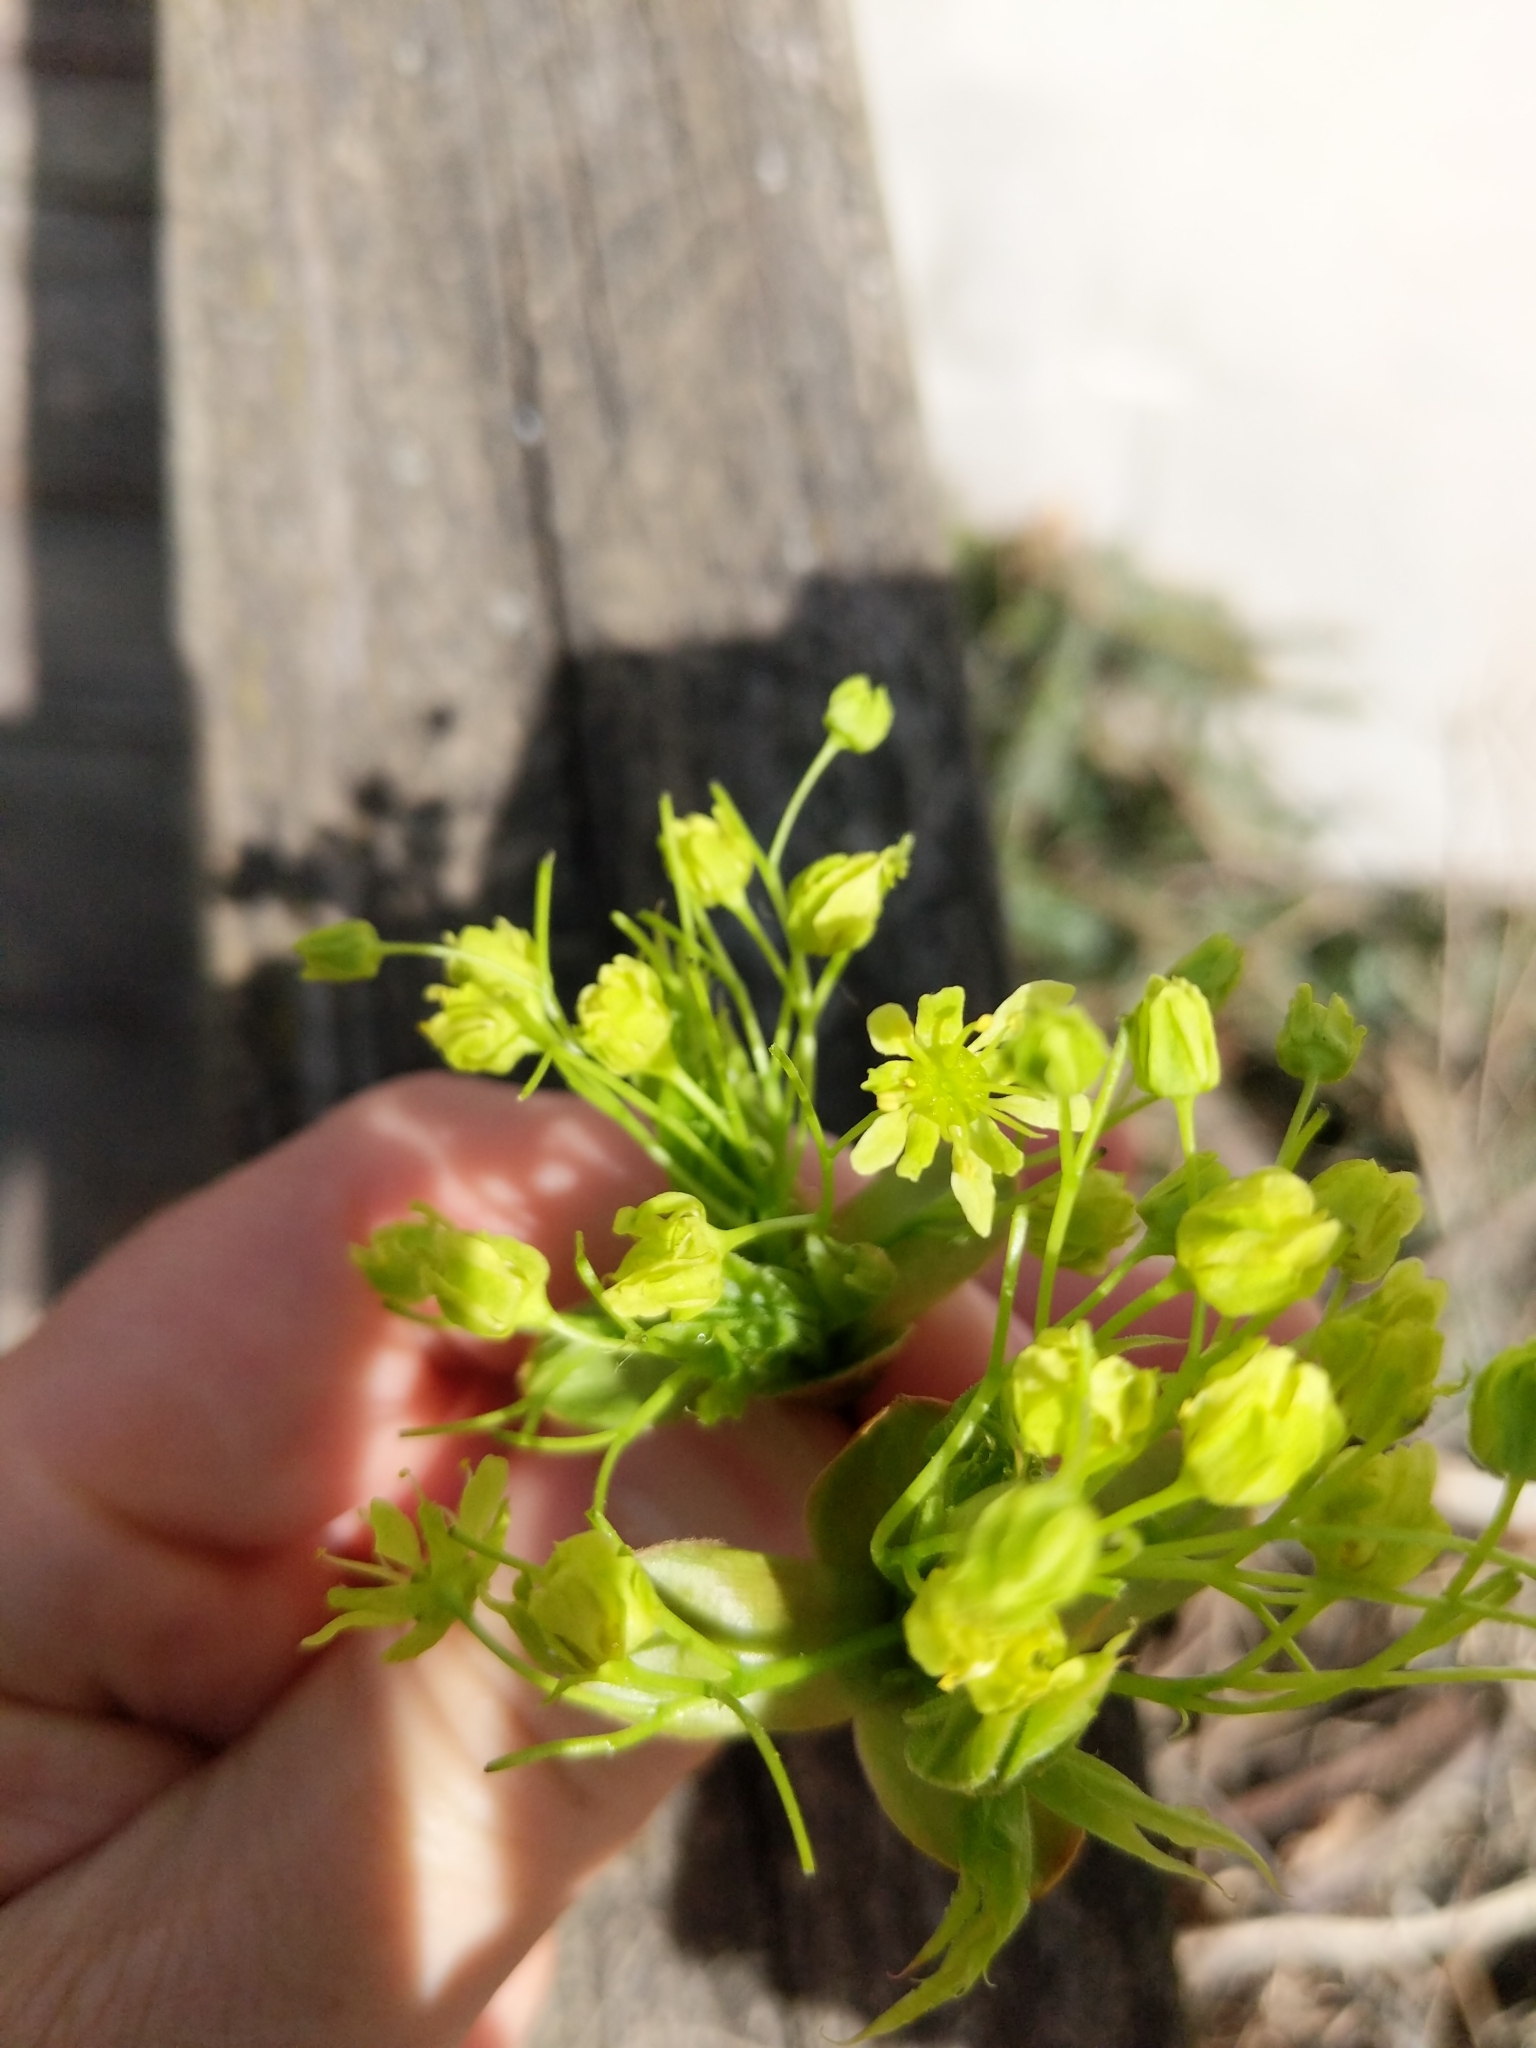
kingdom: Plantae
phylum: Tracheophyta
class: Magnoliopsida
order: Sapindales
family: Sapindaceae
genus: Acer
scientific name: Acer platanoides
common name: Norway maple
